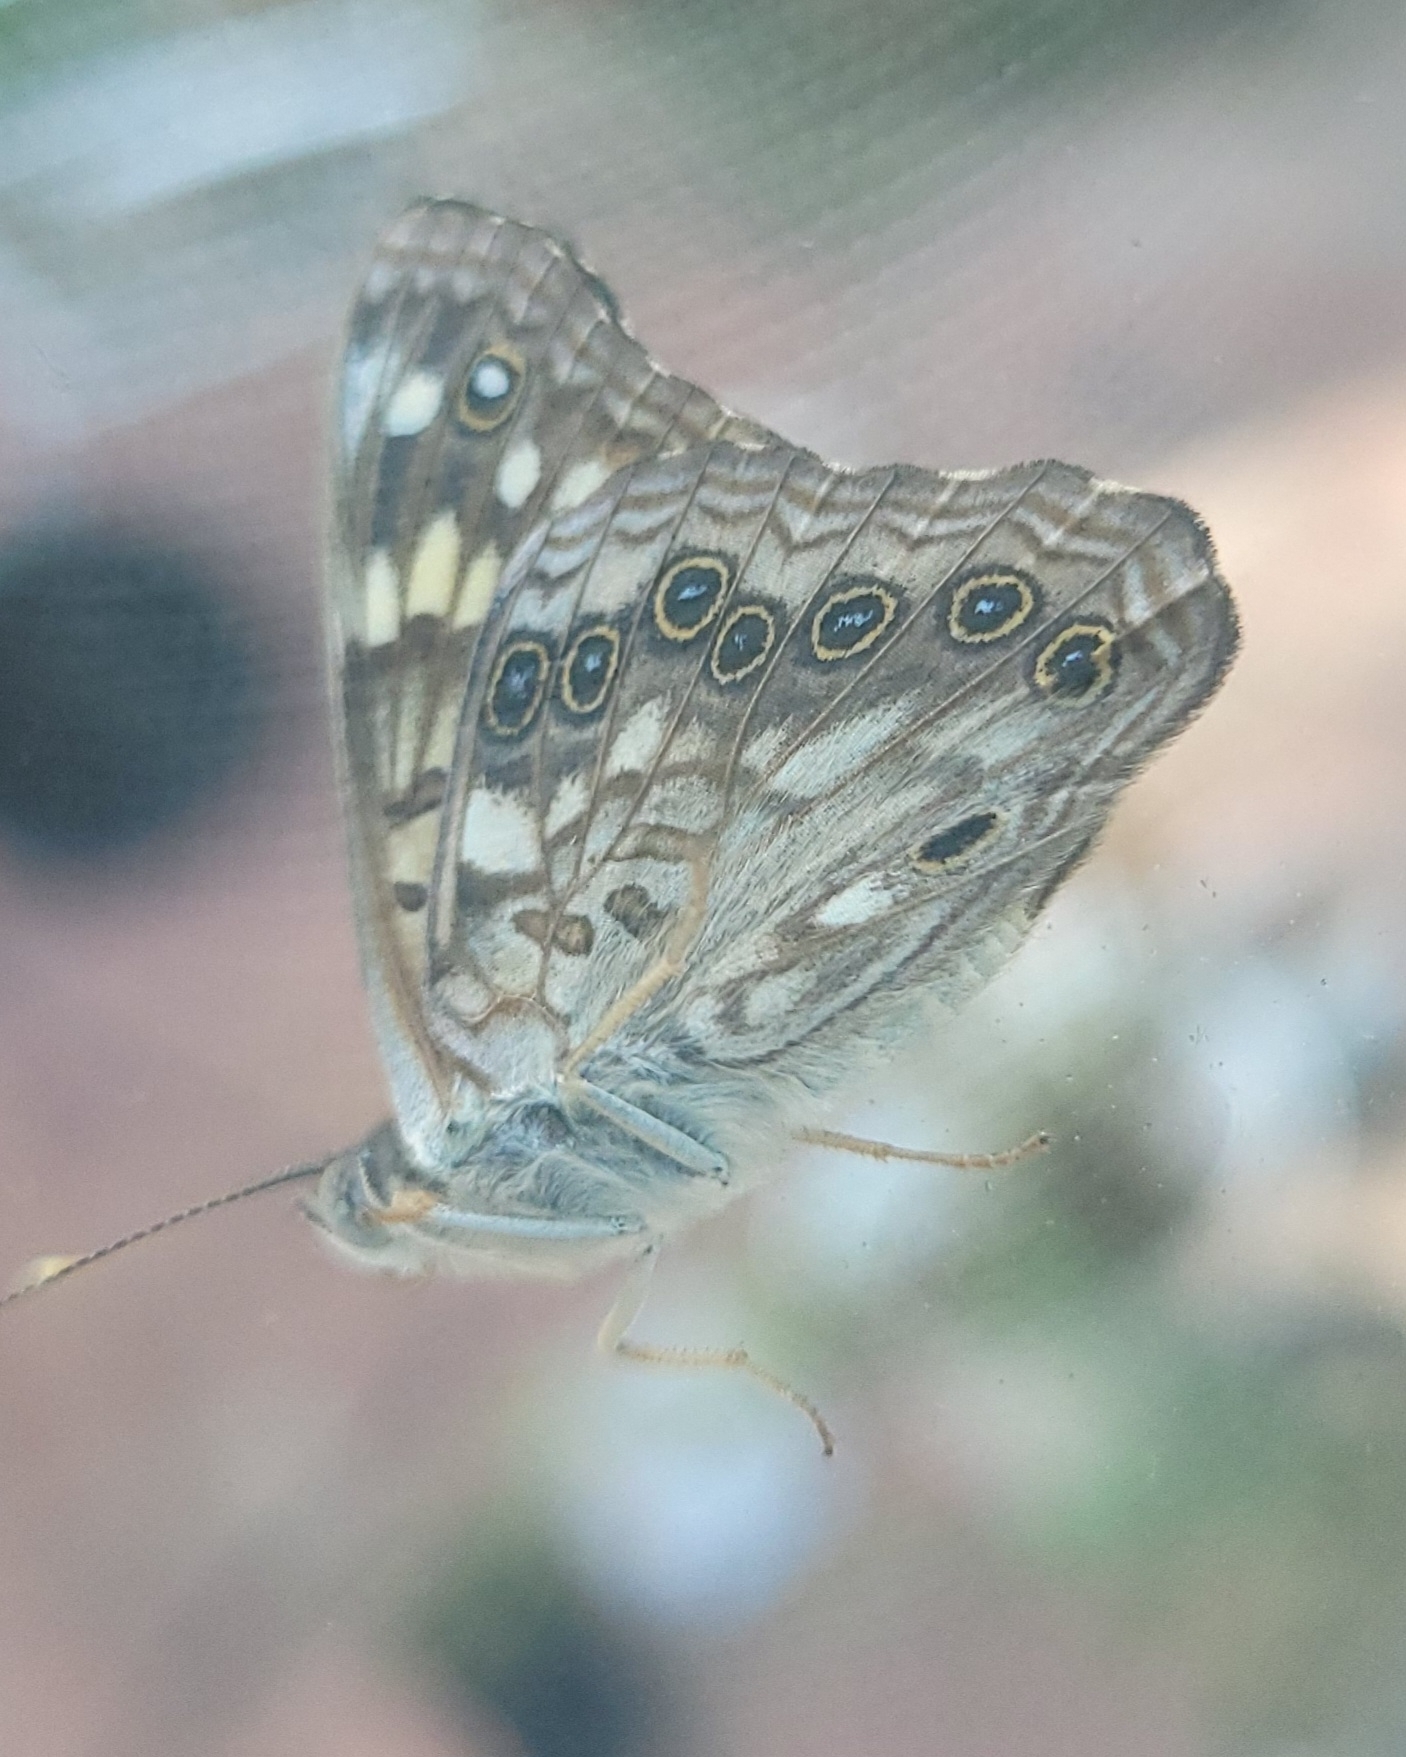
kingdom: Animalia
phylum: Arthropoda
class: Insecta
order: Lepidoptera
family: Nymphalidae
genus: Asterocampa
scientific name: Asterocampa celtis
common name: Hackberry emperor
